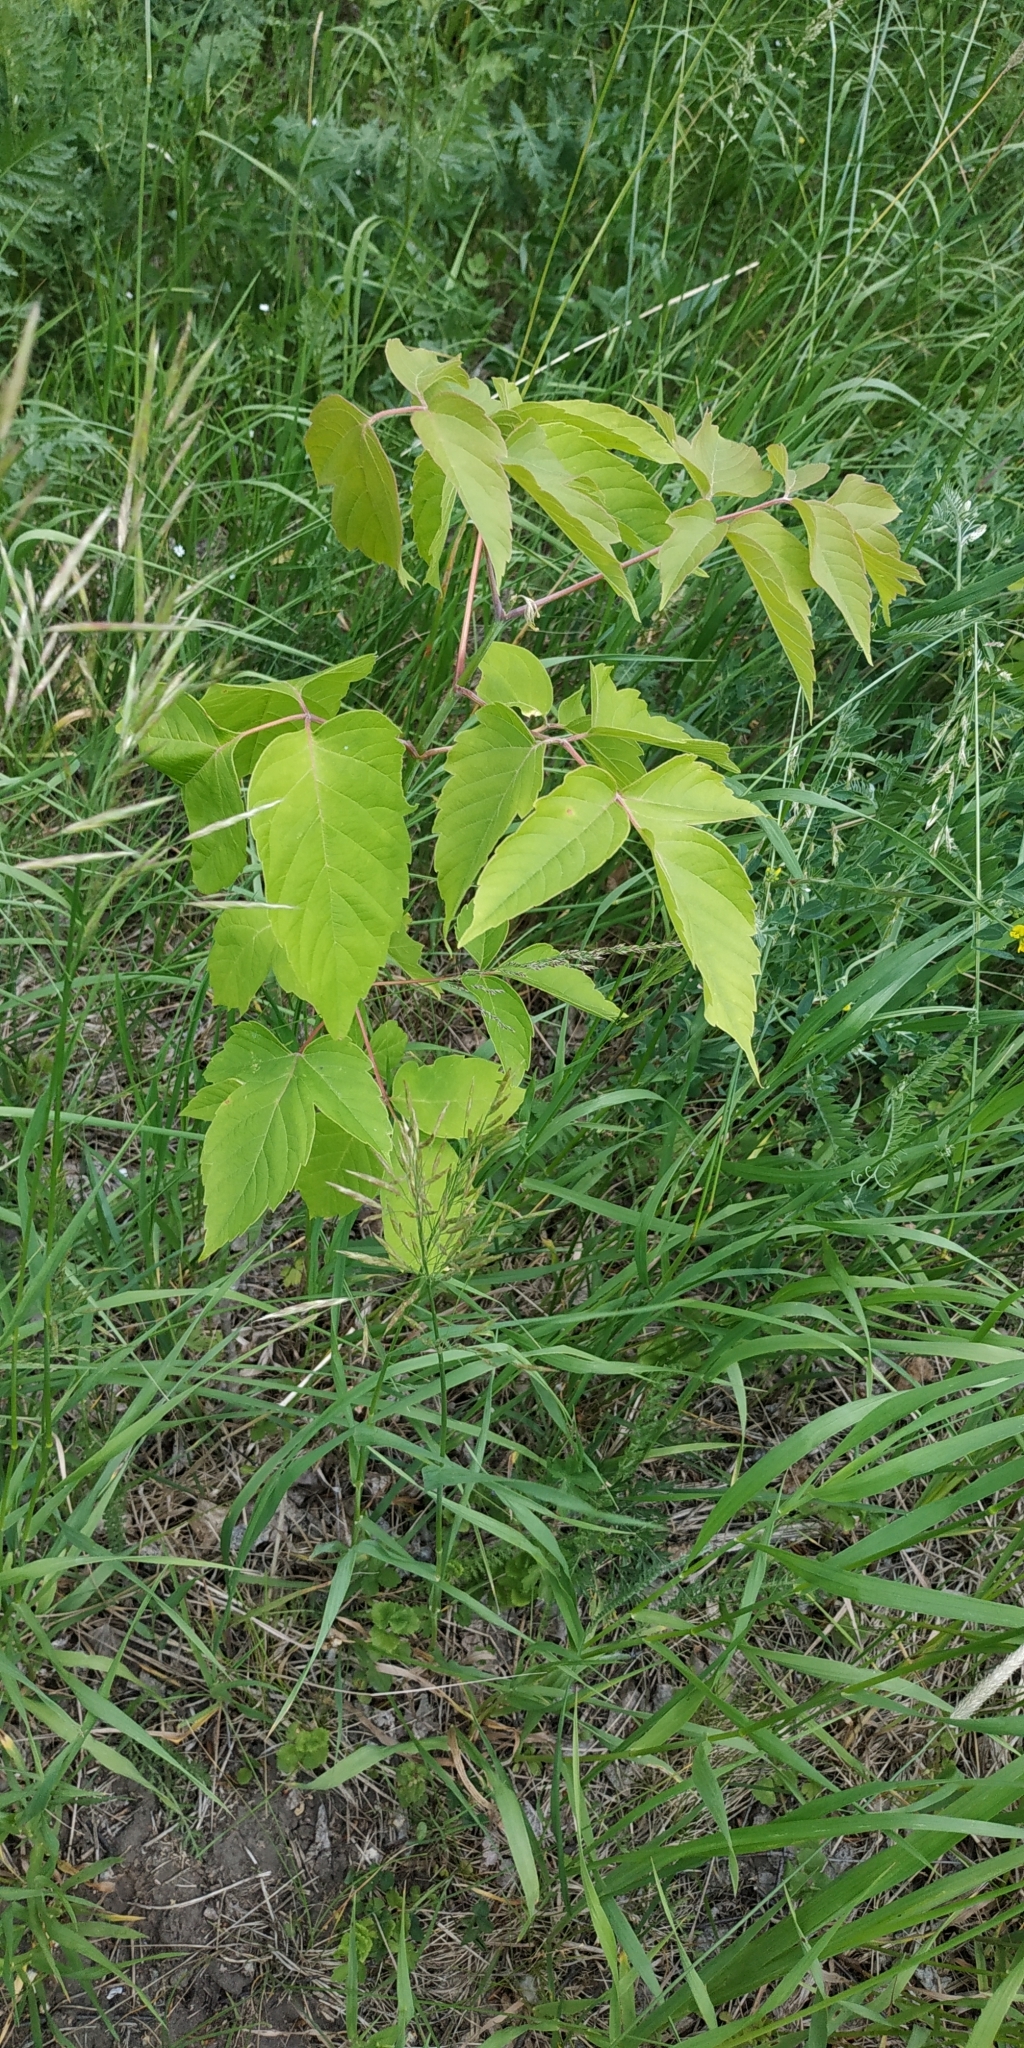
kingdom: Plantae
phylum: Tracheophyta
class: Magnoliopsida
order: Sapindales
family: Sapindaceae
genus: Acer
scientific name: Acer negundo
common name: Ashleaf maple
